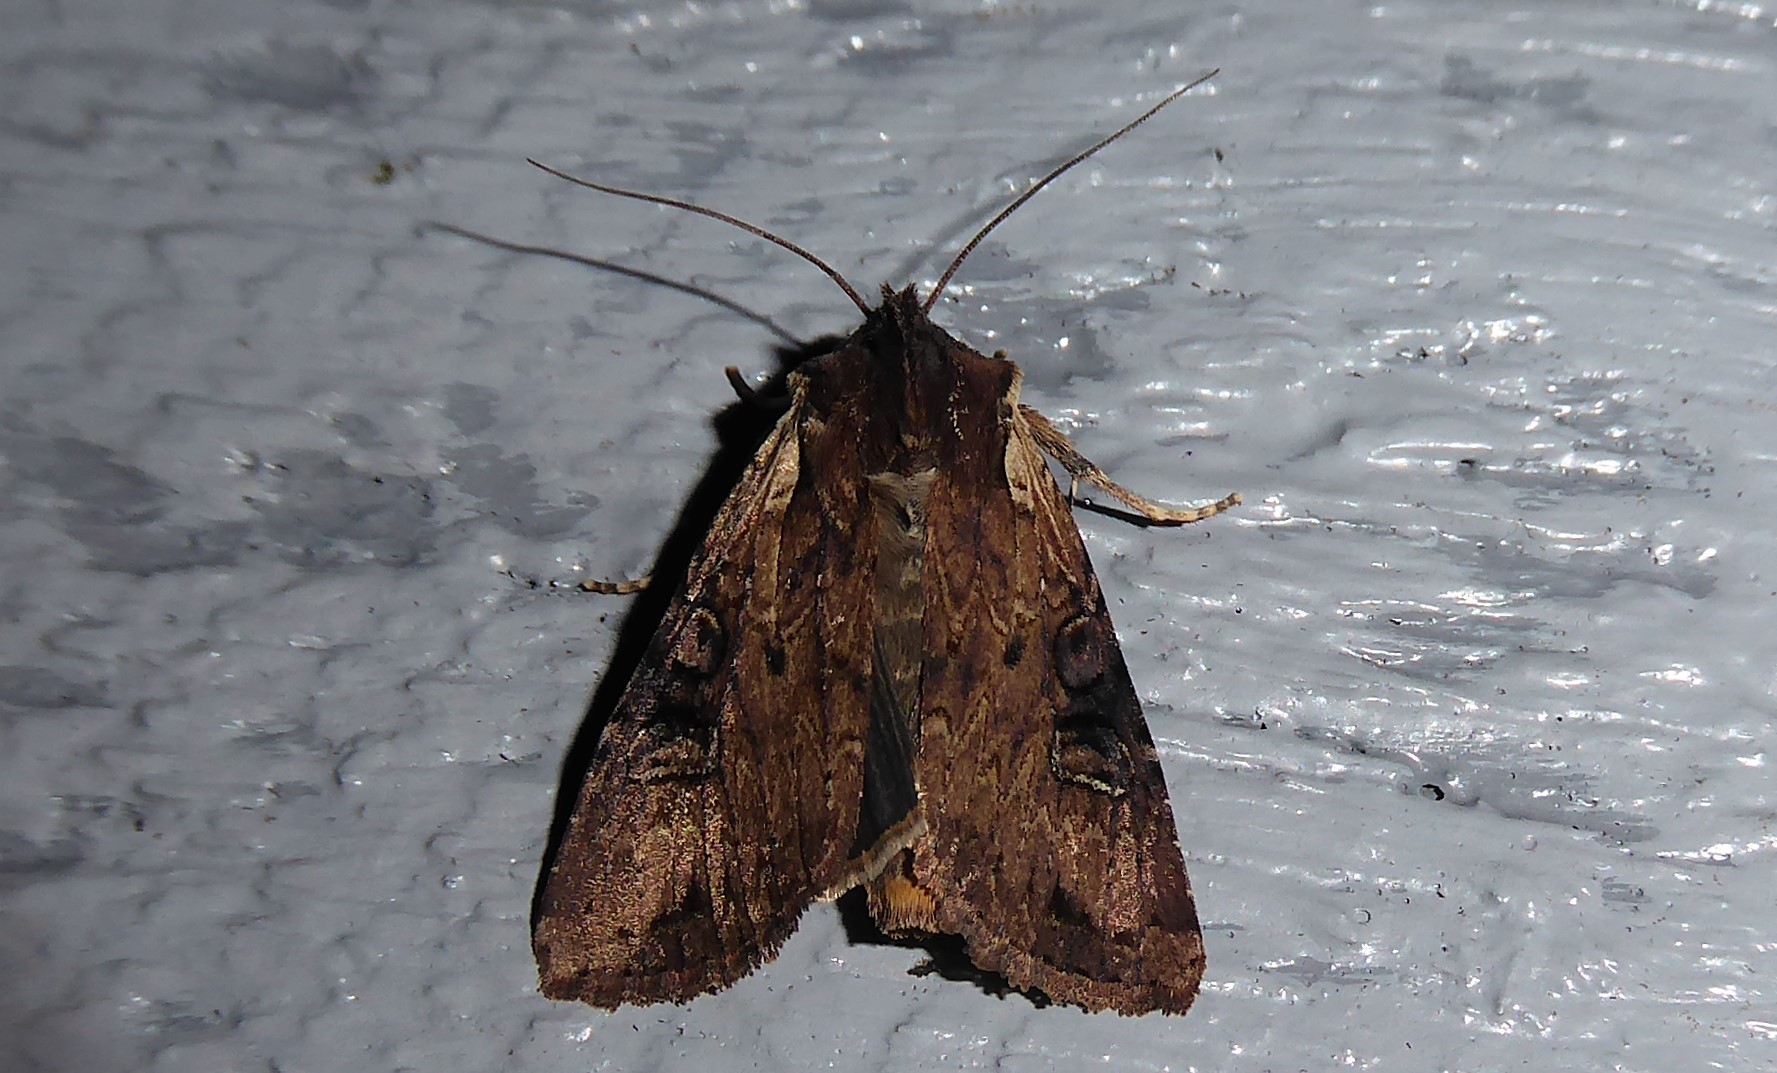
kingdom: Animalia
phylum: Arthropoda
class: Insecta
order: Lepidoptera
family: Noctuidae
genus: Ichneutica
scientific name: Ichneutica omoplaca
